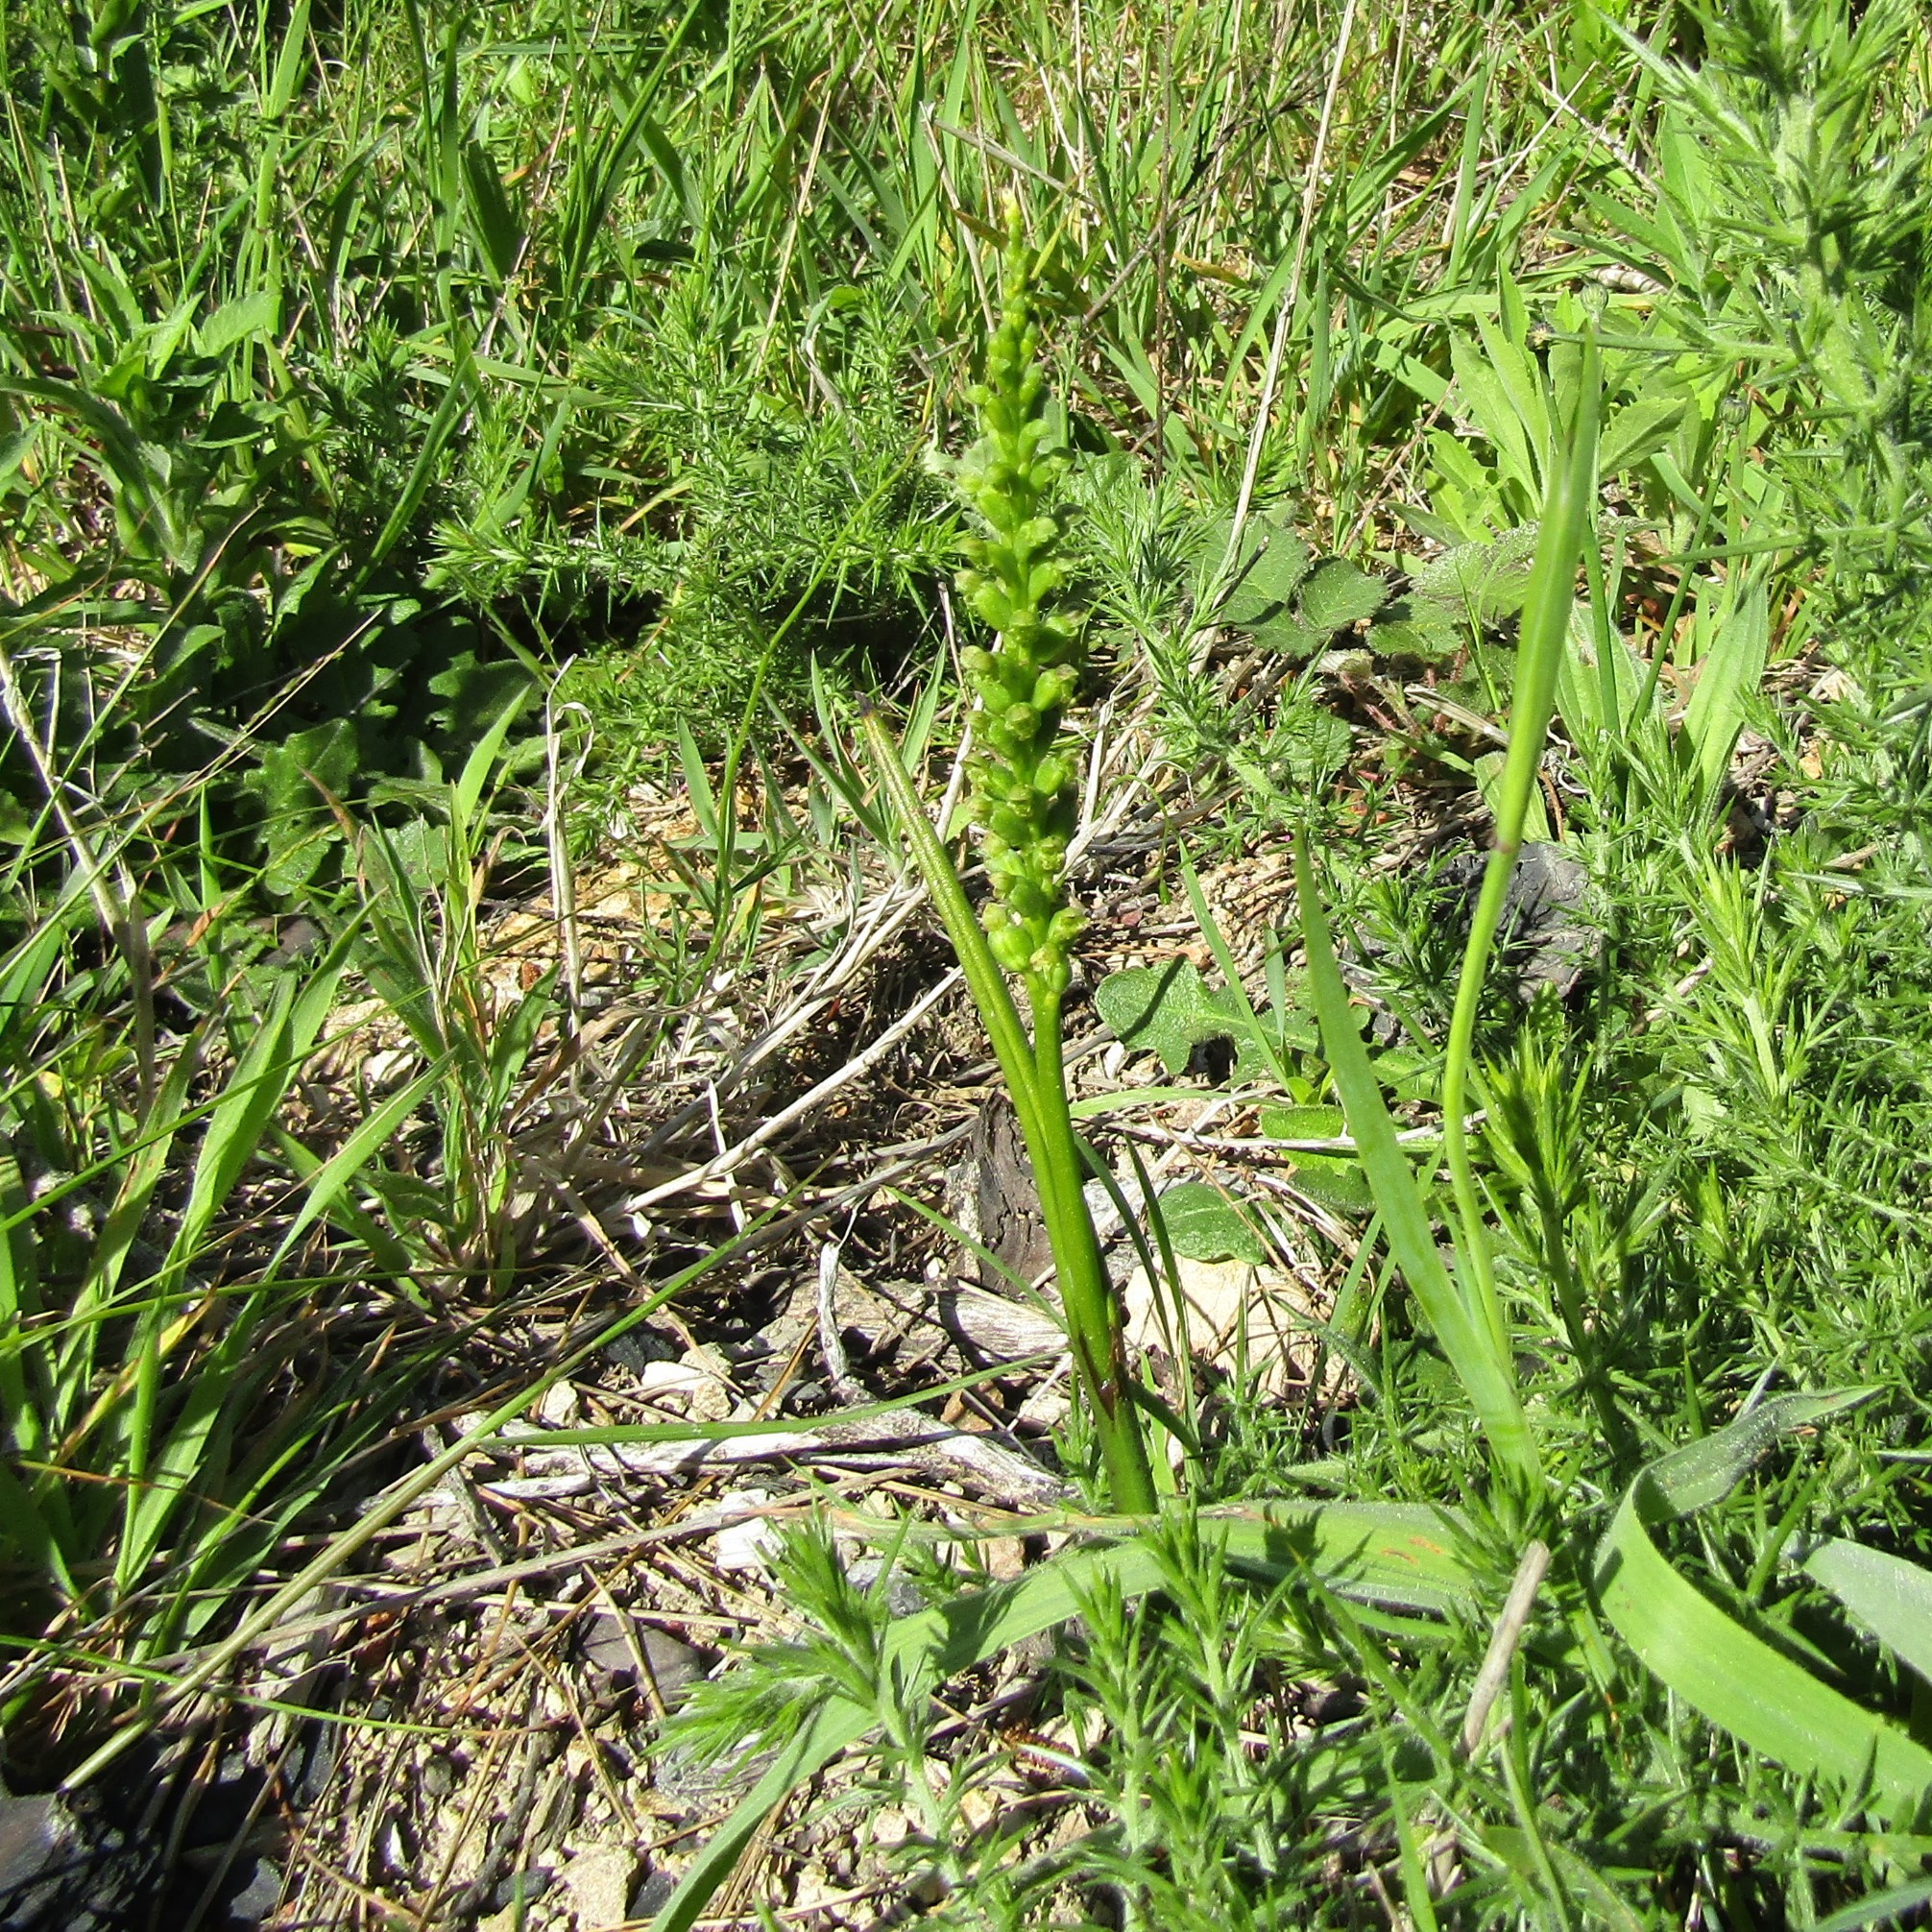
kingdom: Plantae
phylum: Tracheophyta
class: Liliopsida
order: Asparagales
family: Orchidaceae
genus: Microtis
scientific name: Microtis unifolia
